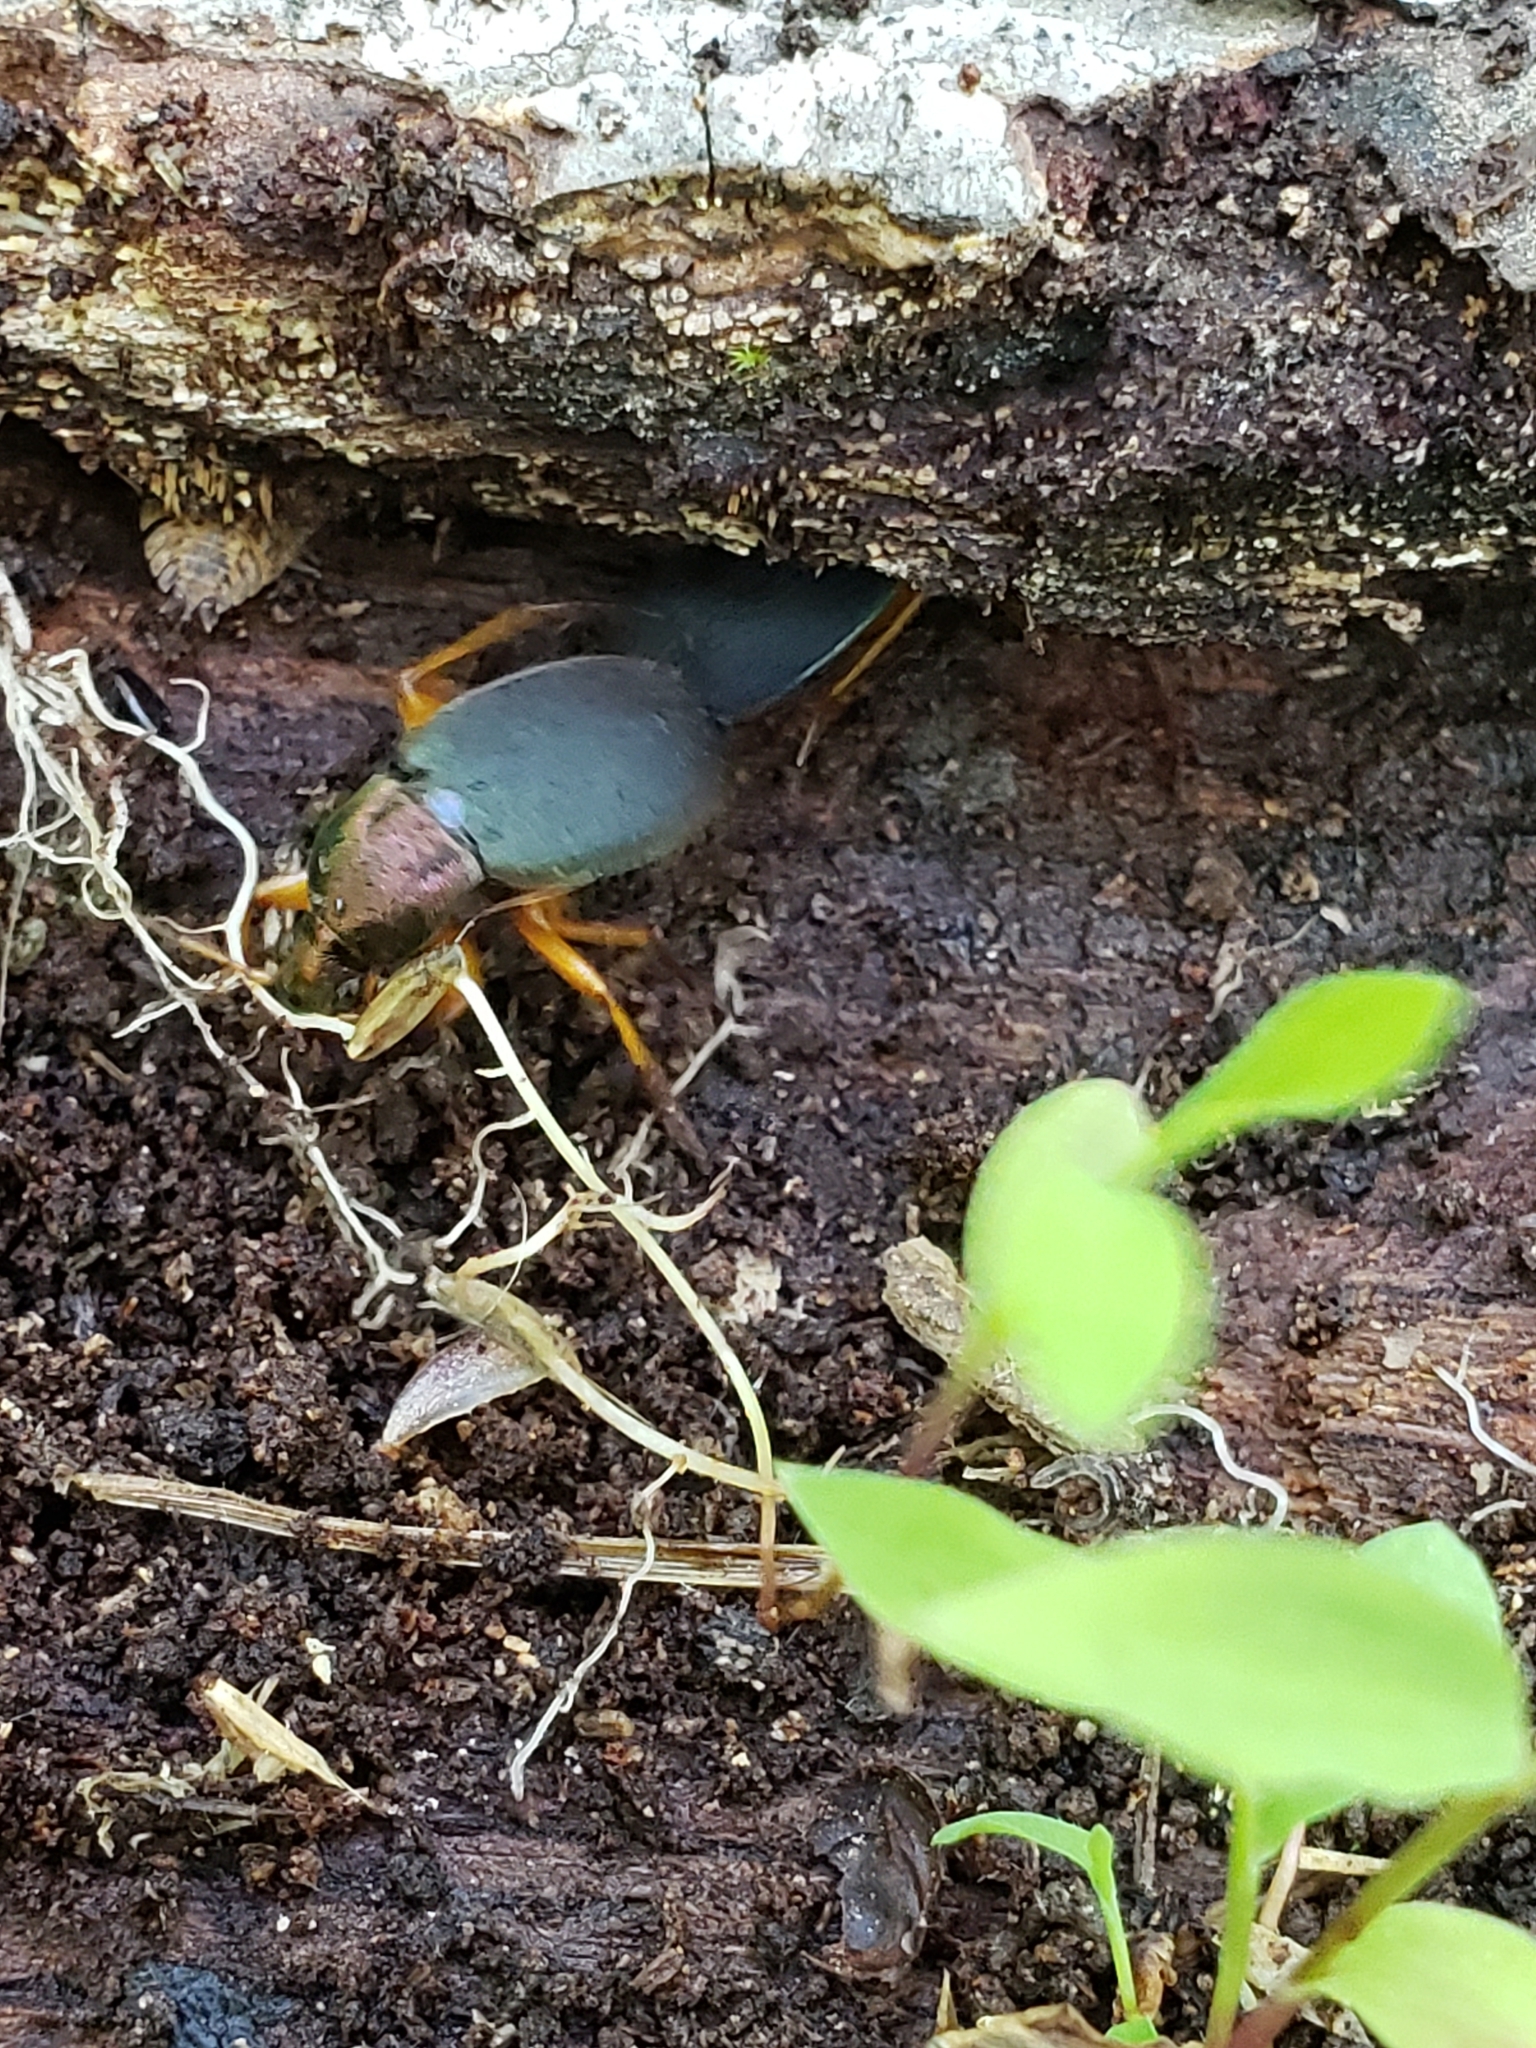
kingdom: Animalia
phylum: Arthropoda
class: Insecta
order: Coleoptera
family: Carabidae
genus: Chlaenius
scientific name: Chlaenius aestivus
